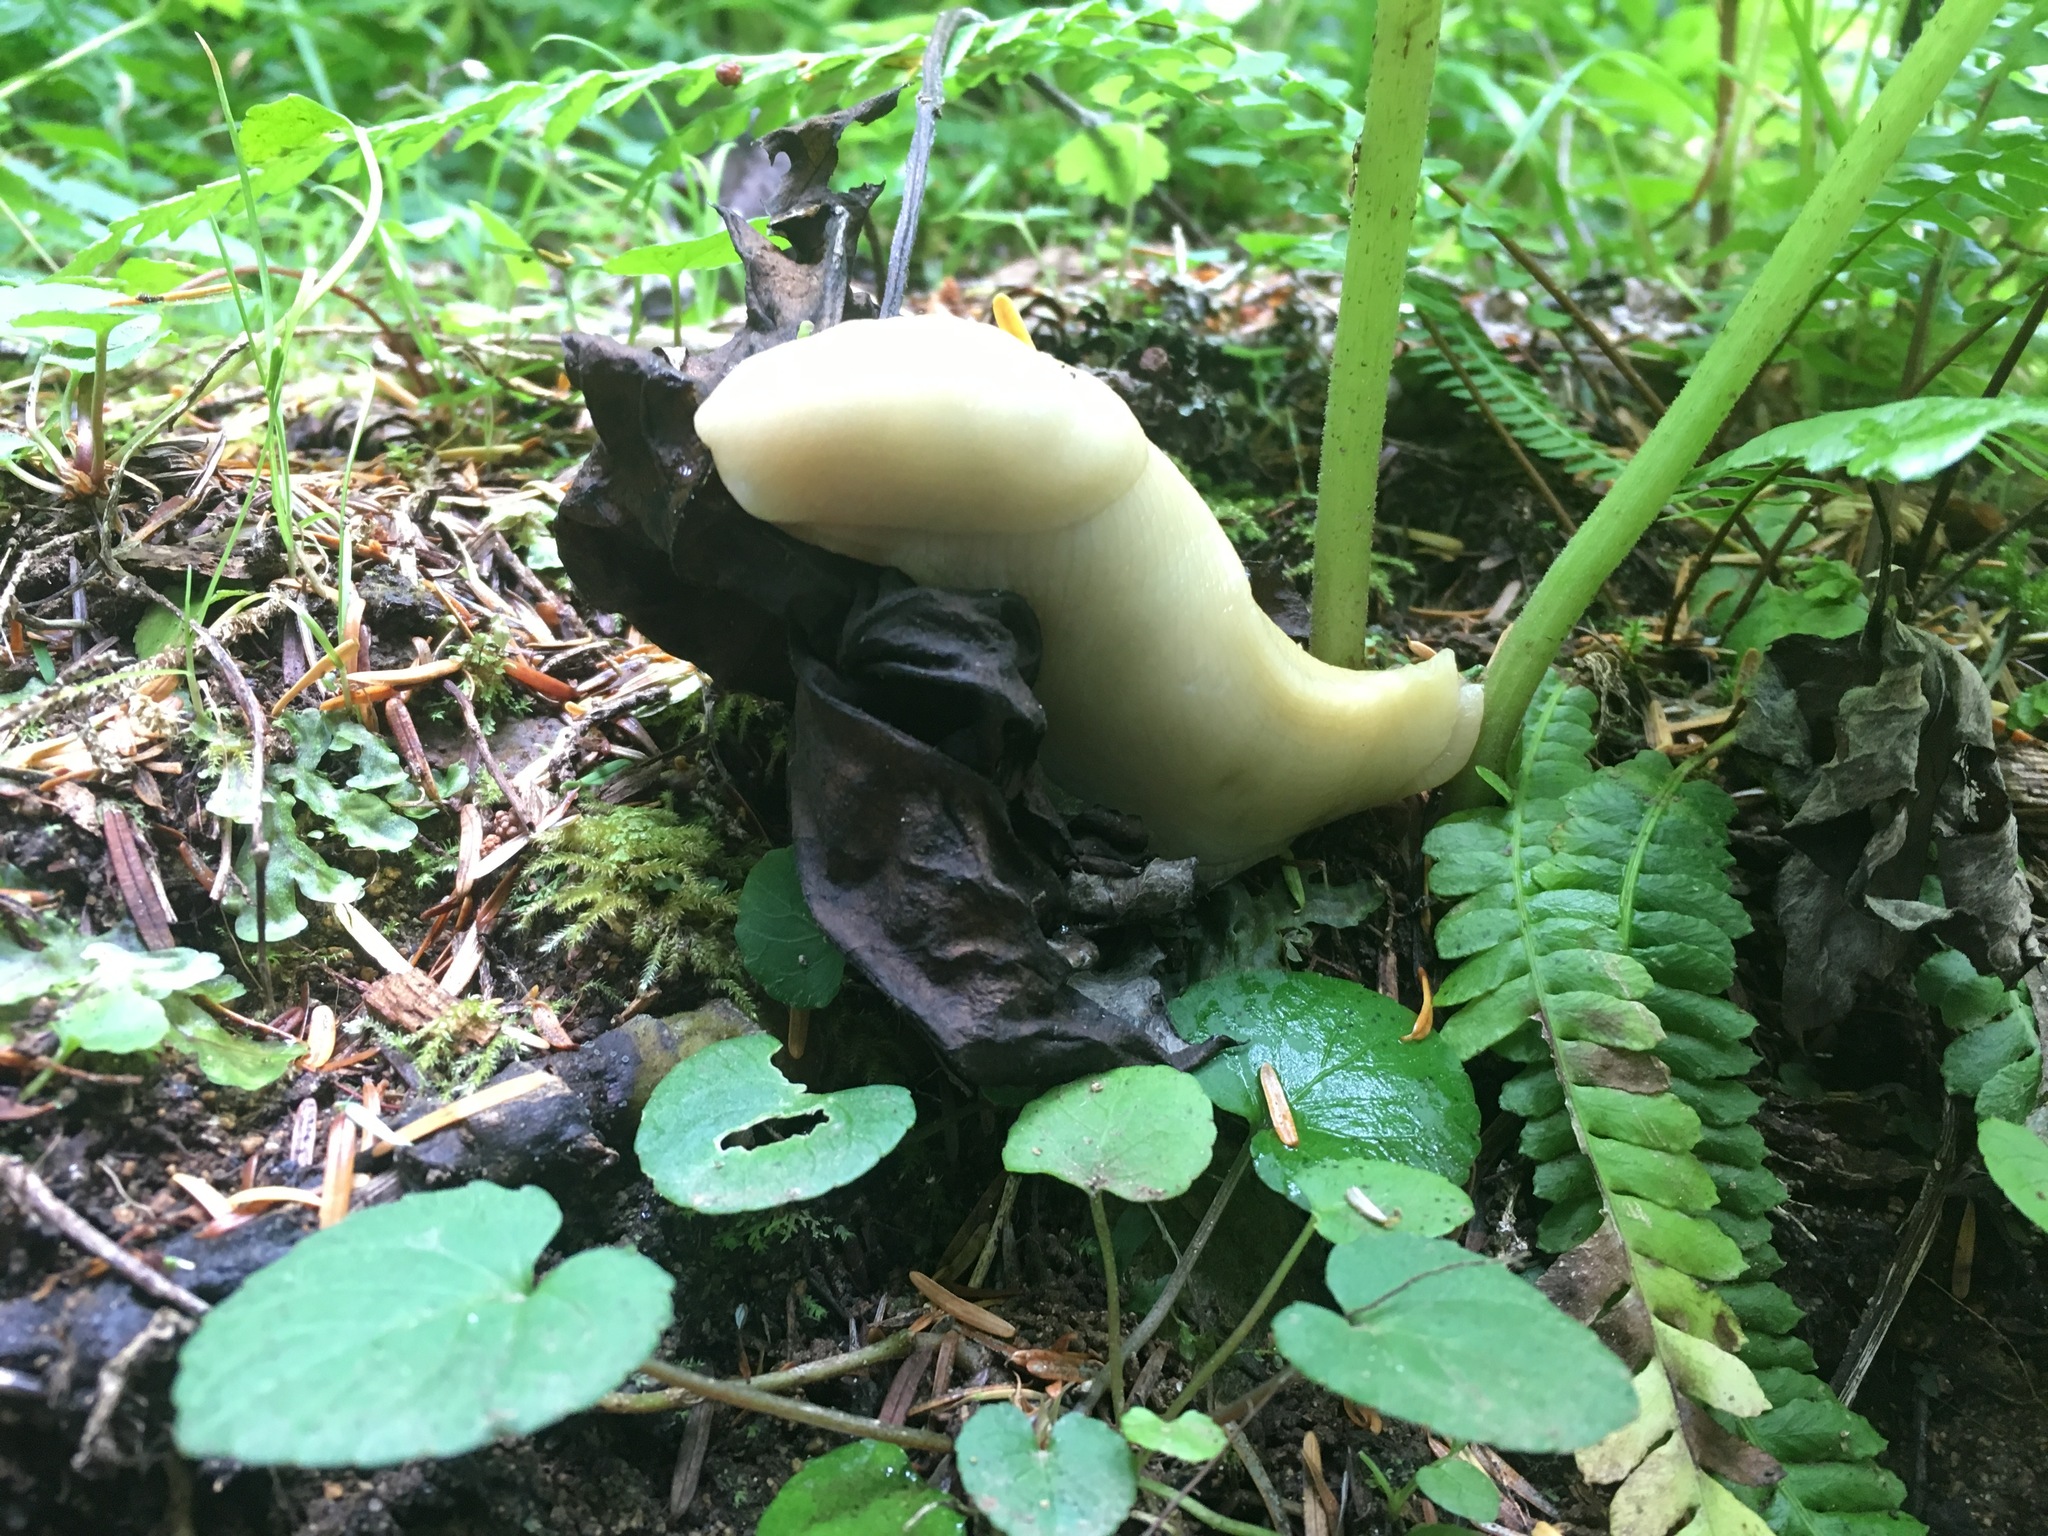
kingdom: Animalia
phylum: Mollusca
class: Gastropoda
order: Stylommatophora
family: Ariolimacidae
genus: Ariolimax
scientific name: Ariolimax columbianus
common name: Pacific banana slug
